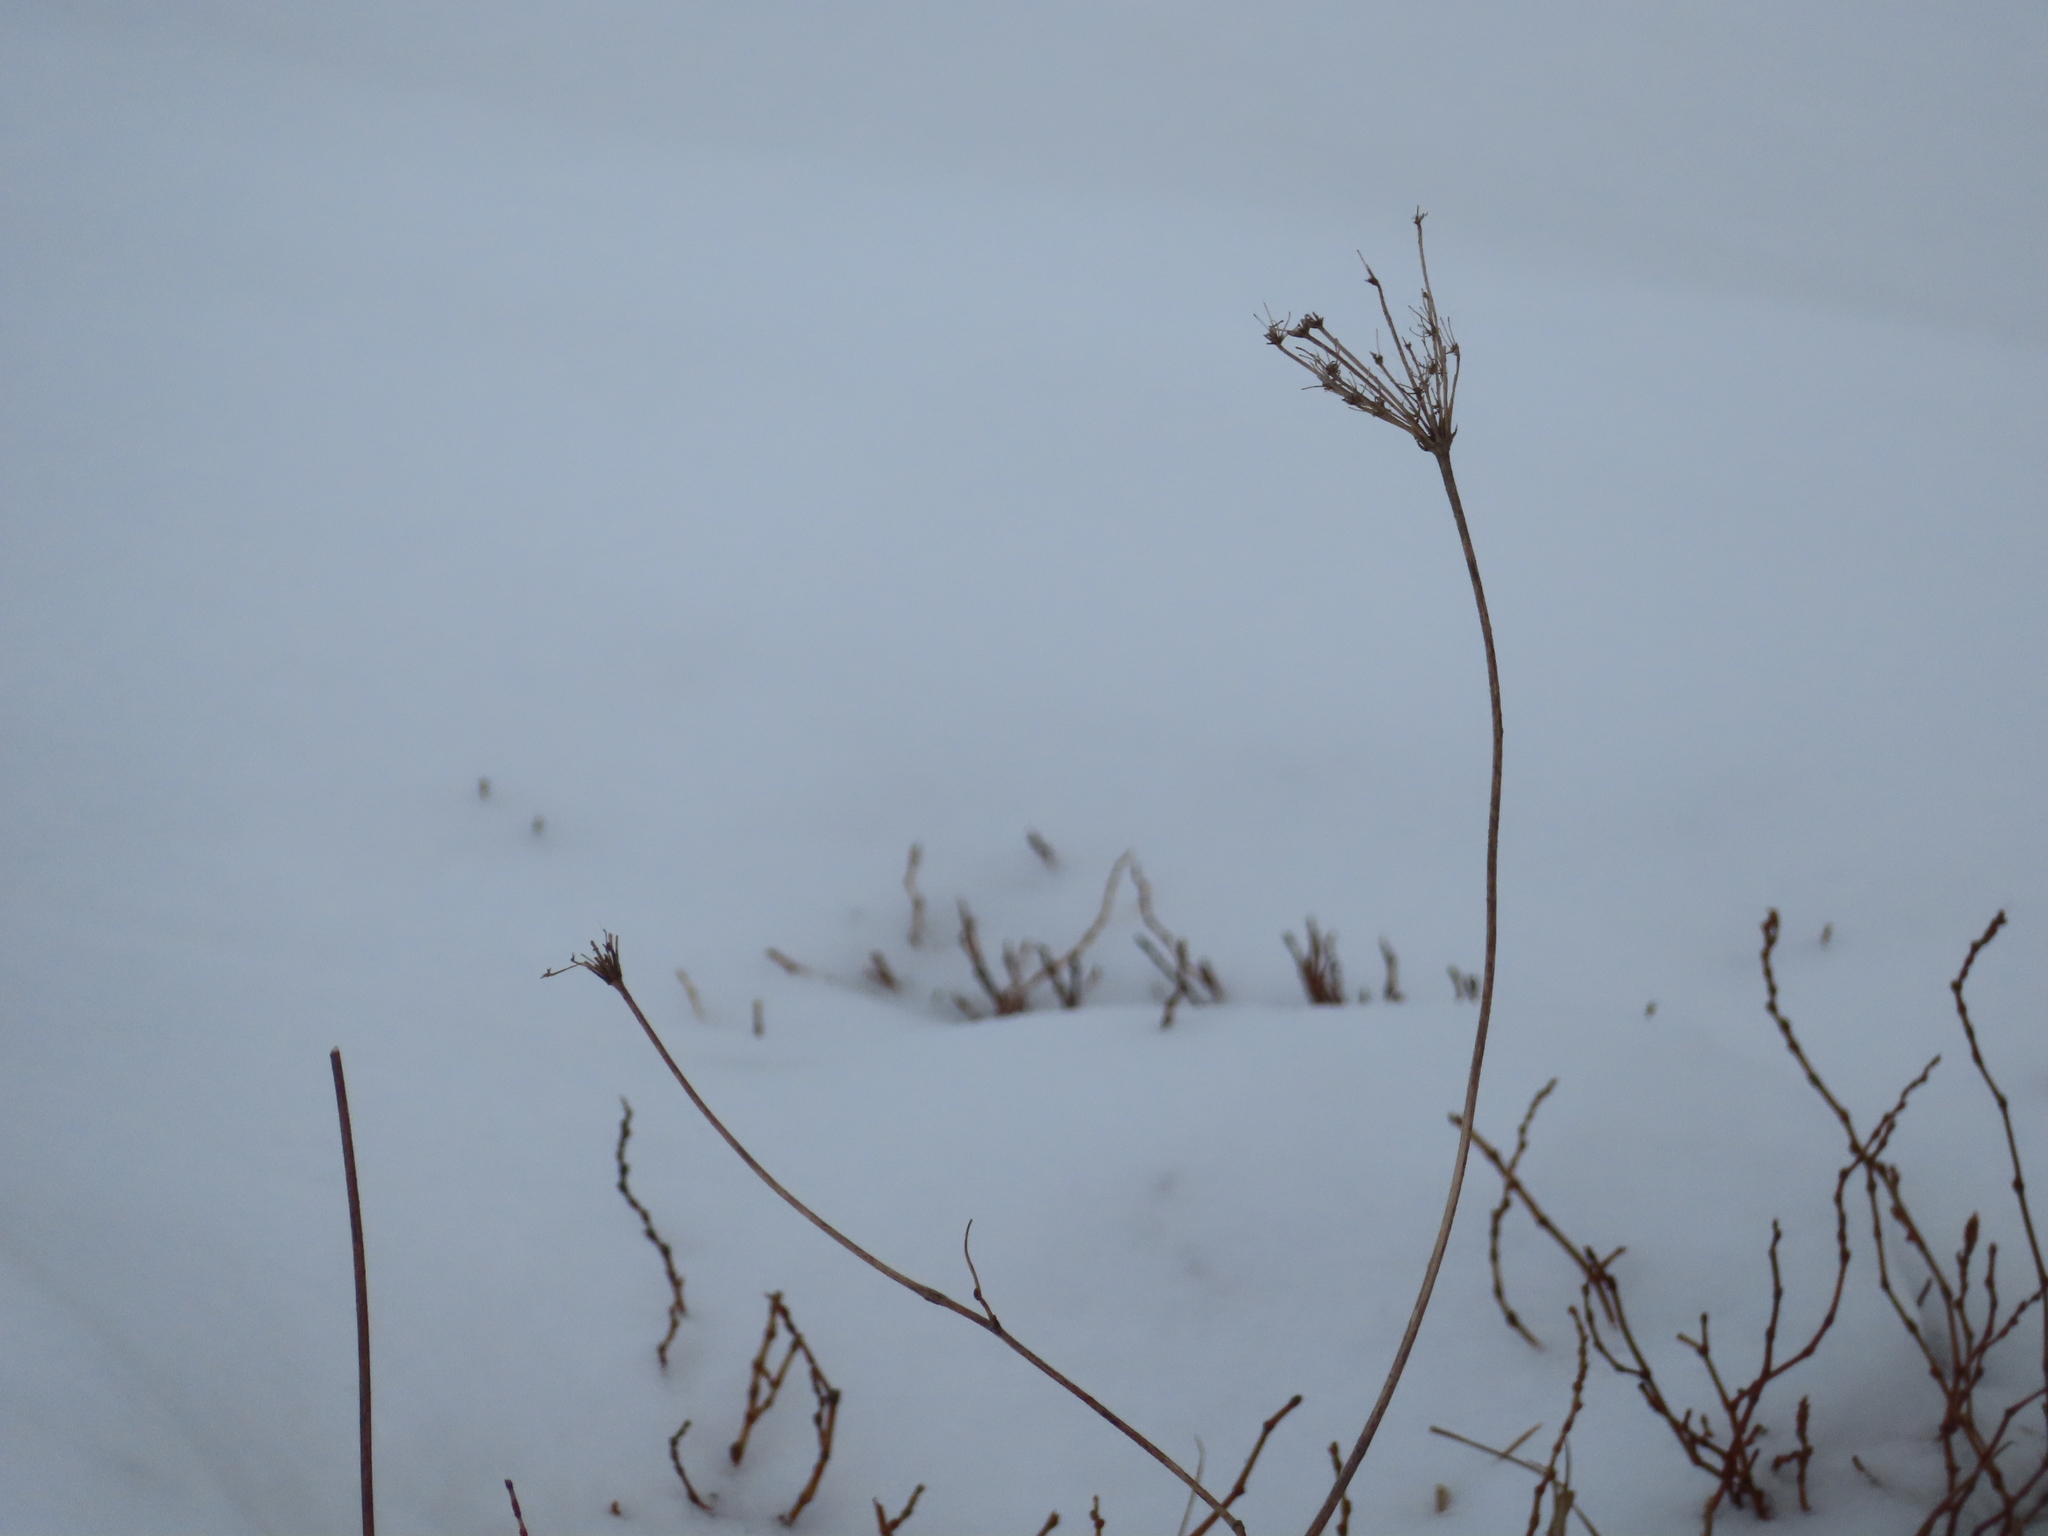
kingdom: Plantae
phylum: Tracheophyta
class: Magnoliopsida
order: Apiales
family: Apiaceae
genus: Daucus
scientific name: Daucus carota
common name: Wild carrot
